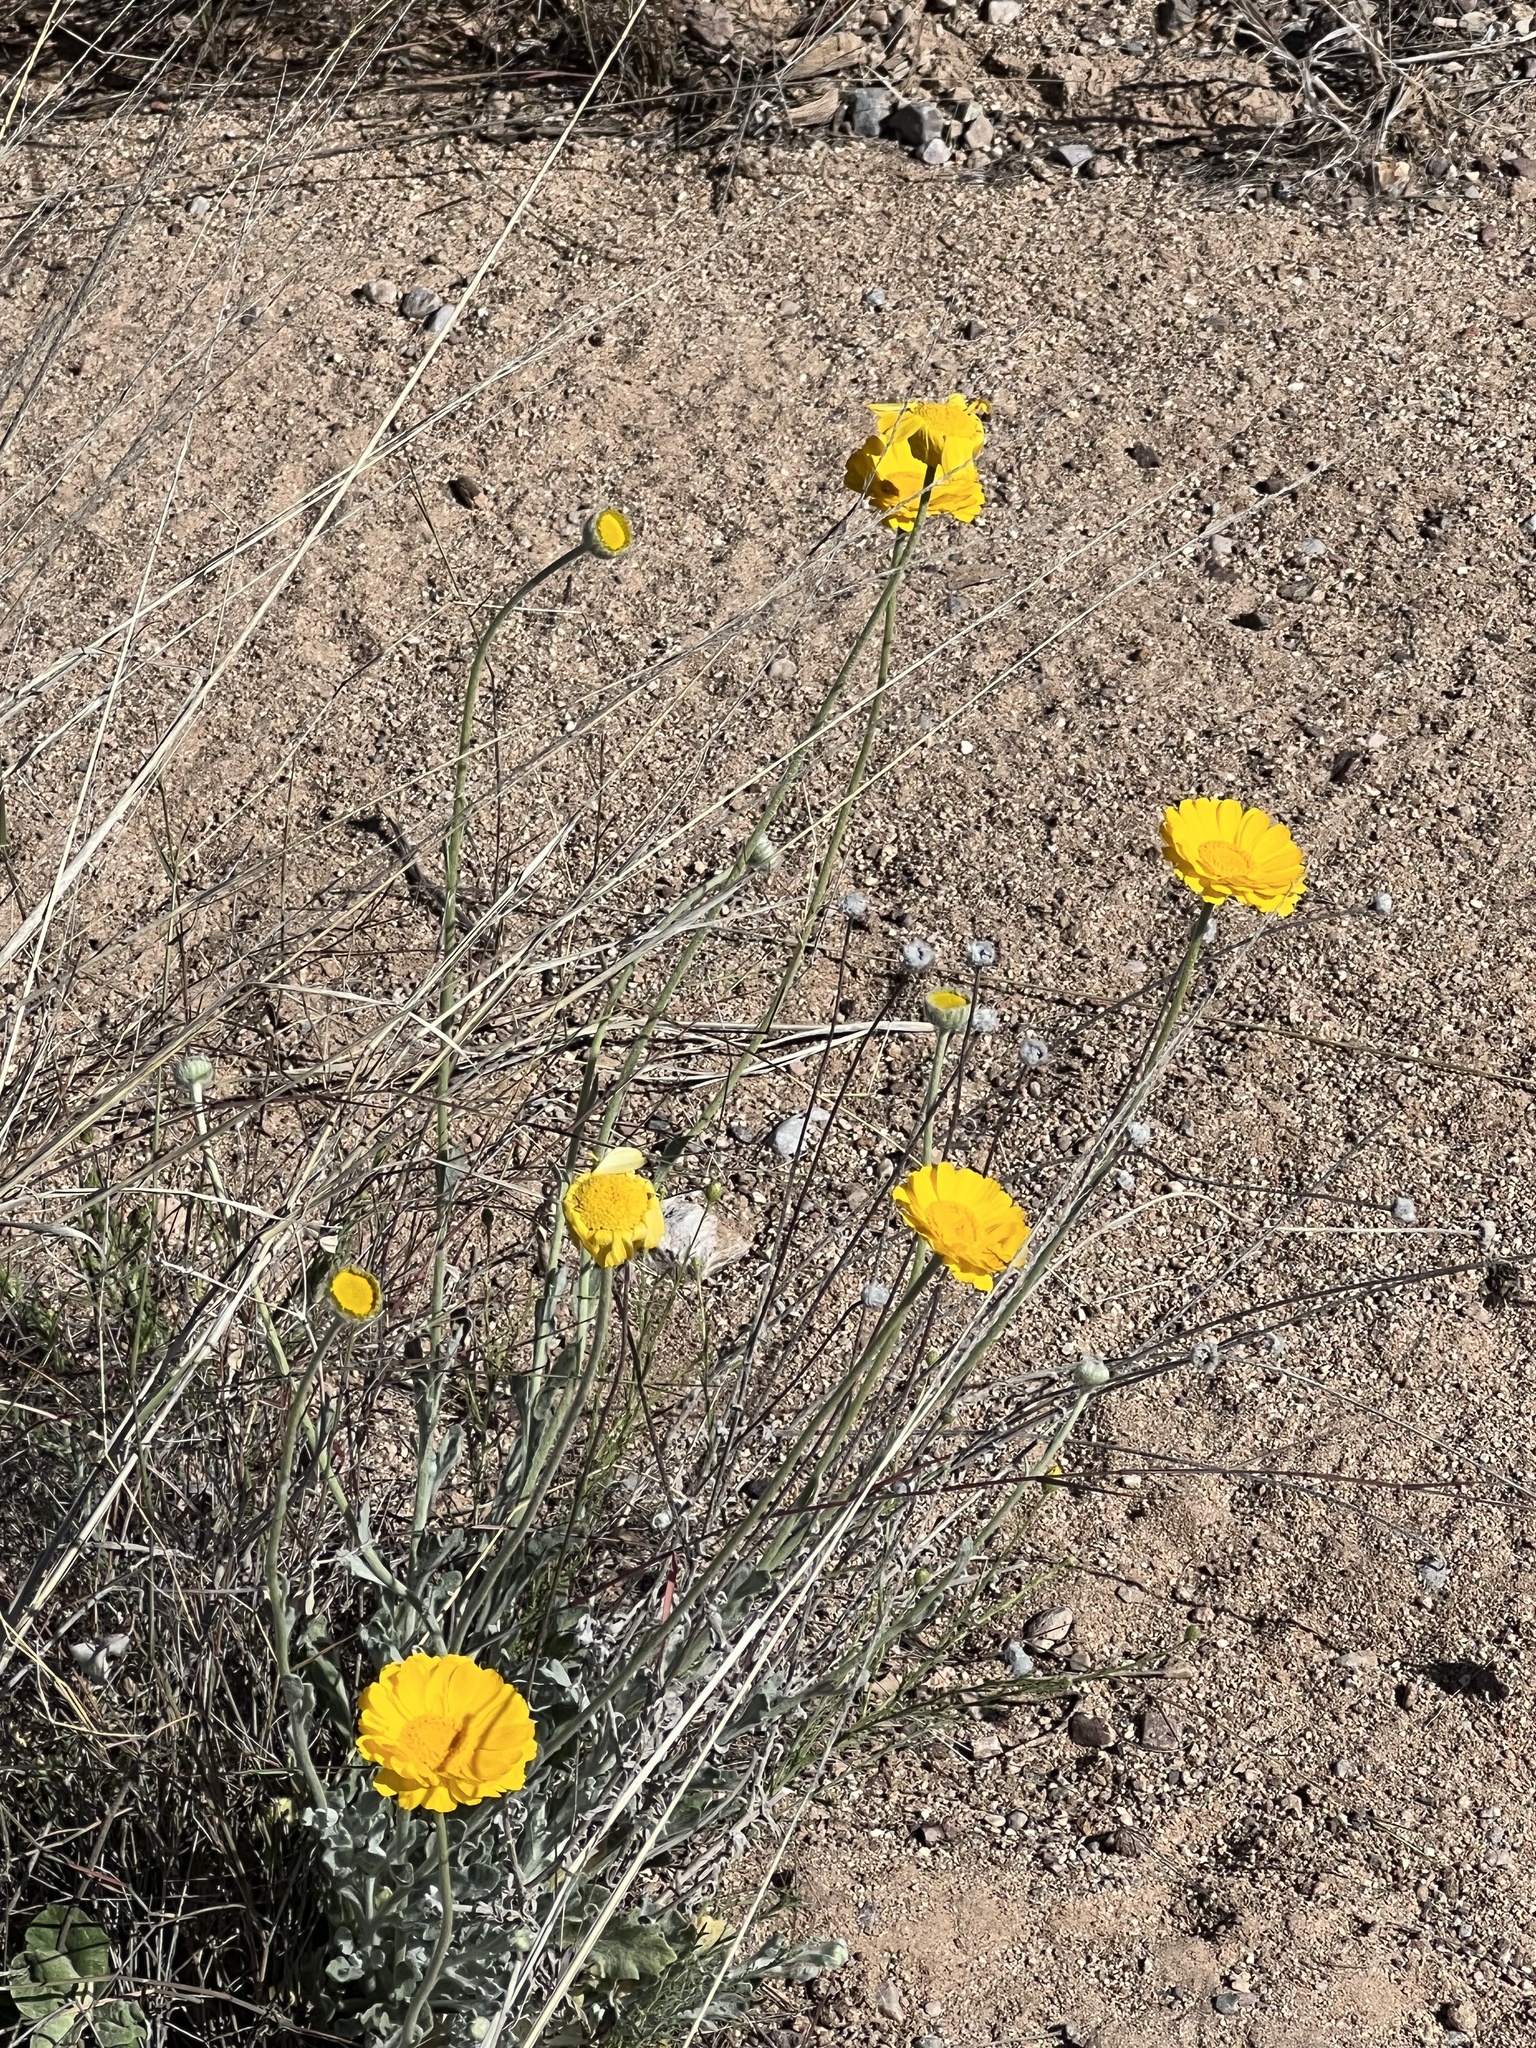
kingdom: Plantae
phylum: Tracheophyta
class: Magnoliopsida
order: Asterales
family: Asteraceae
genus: Baileya
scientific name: Baileya multiradiata
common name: Desert-marigold
